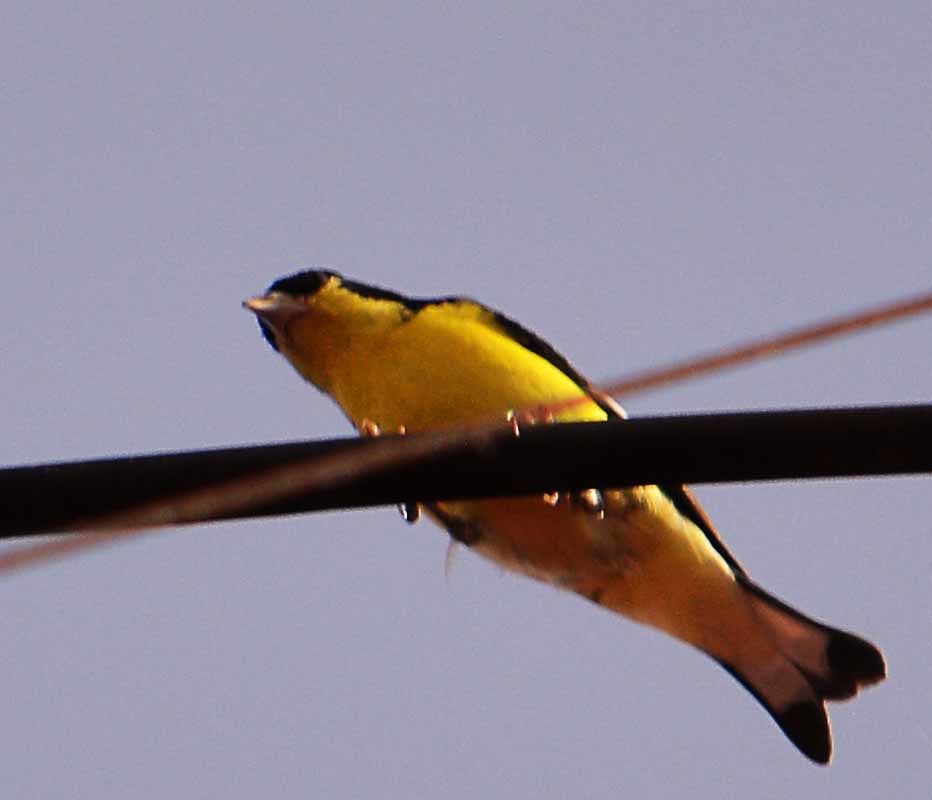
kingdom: Animalia
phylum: Chordata
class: Aves
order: Passeriformes
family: Fringillidae
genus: Spinus
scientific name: Spinus psaltria
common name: Lesser goldfinch
